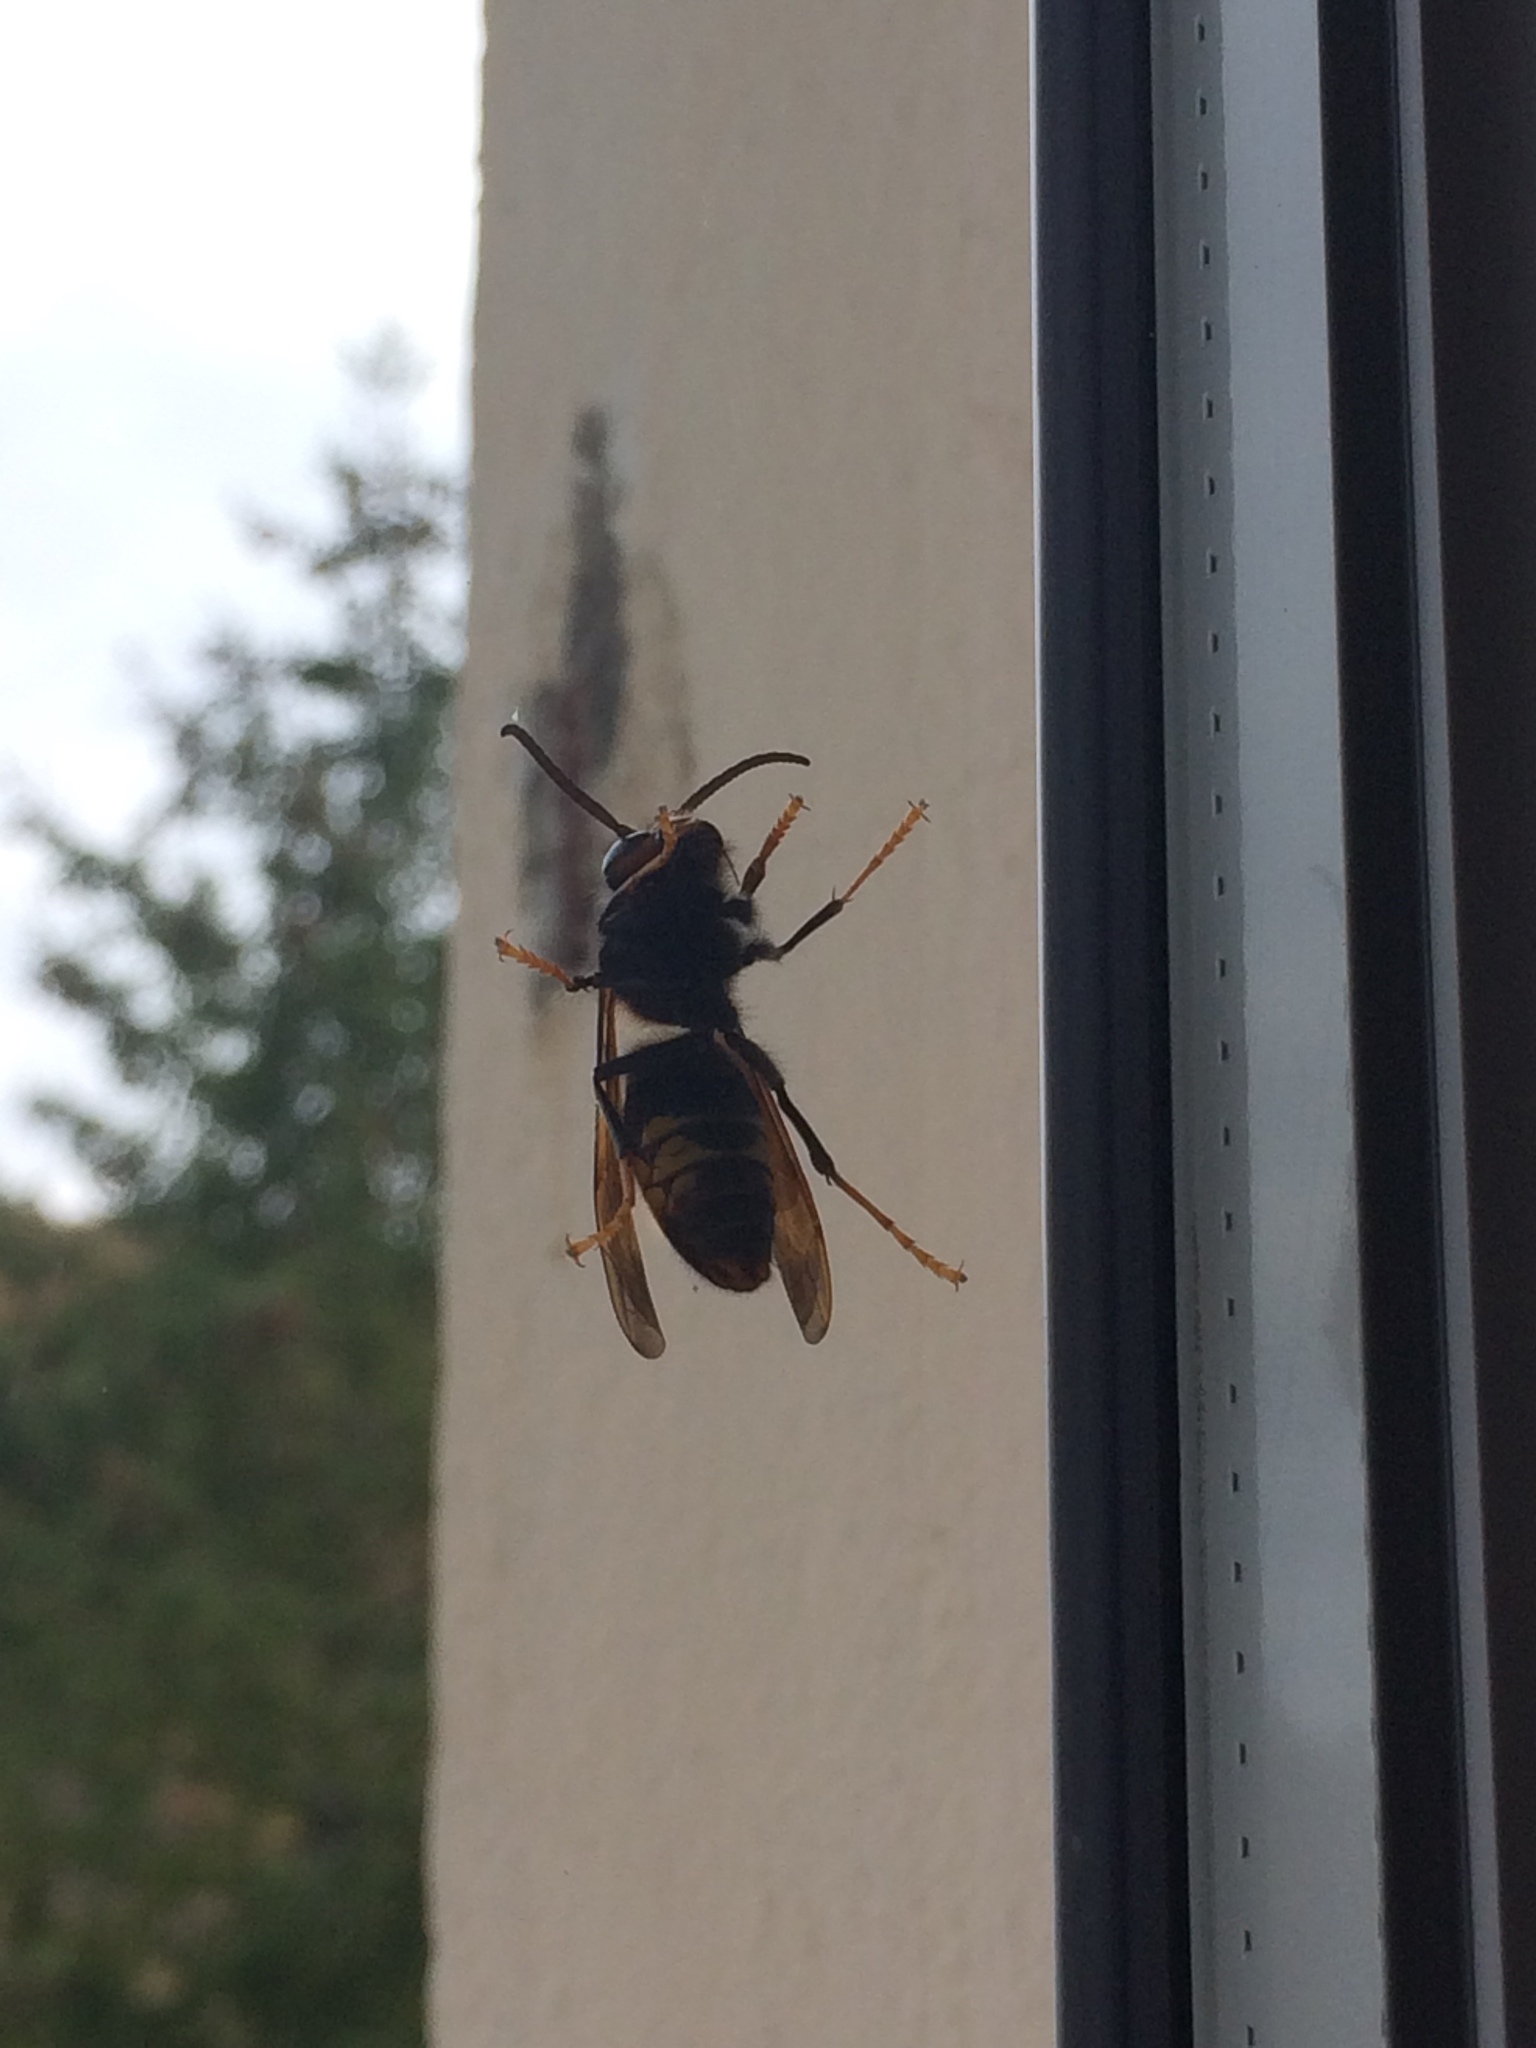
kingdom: Animalia
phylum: Arthropoda
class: Insecta
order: Hymenoptera
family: Vespidae
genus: Vespa
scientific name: Vespa velutina
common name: Asian hornet
